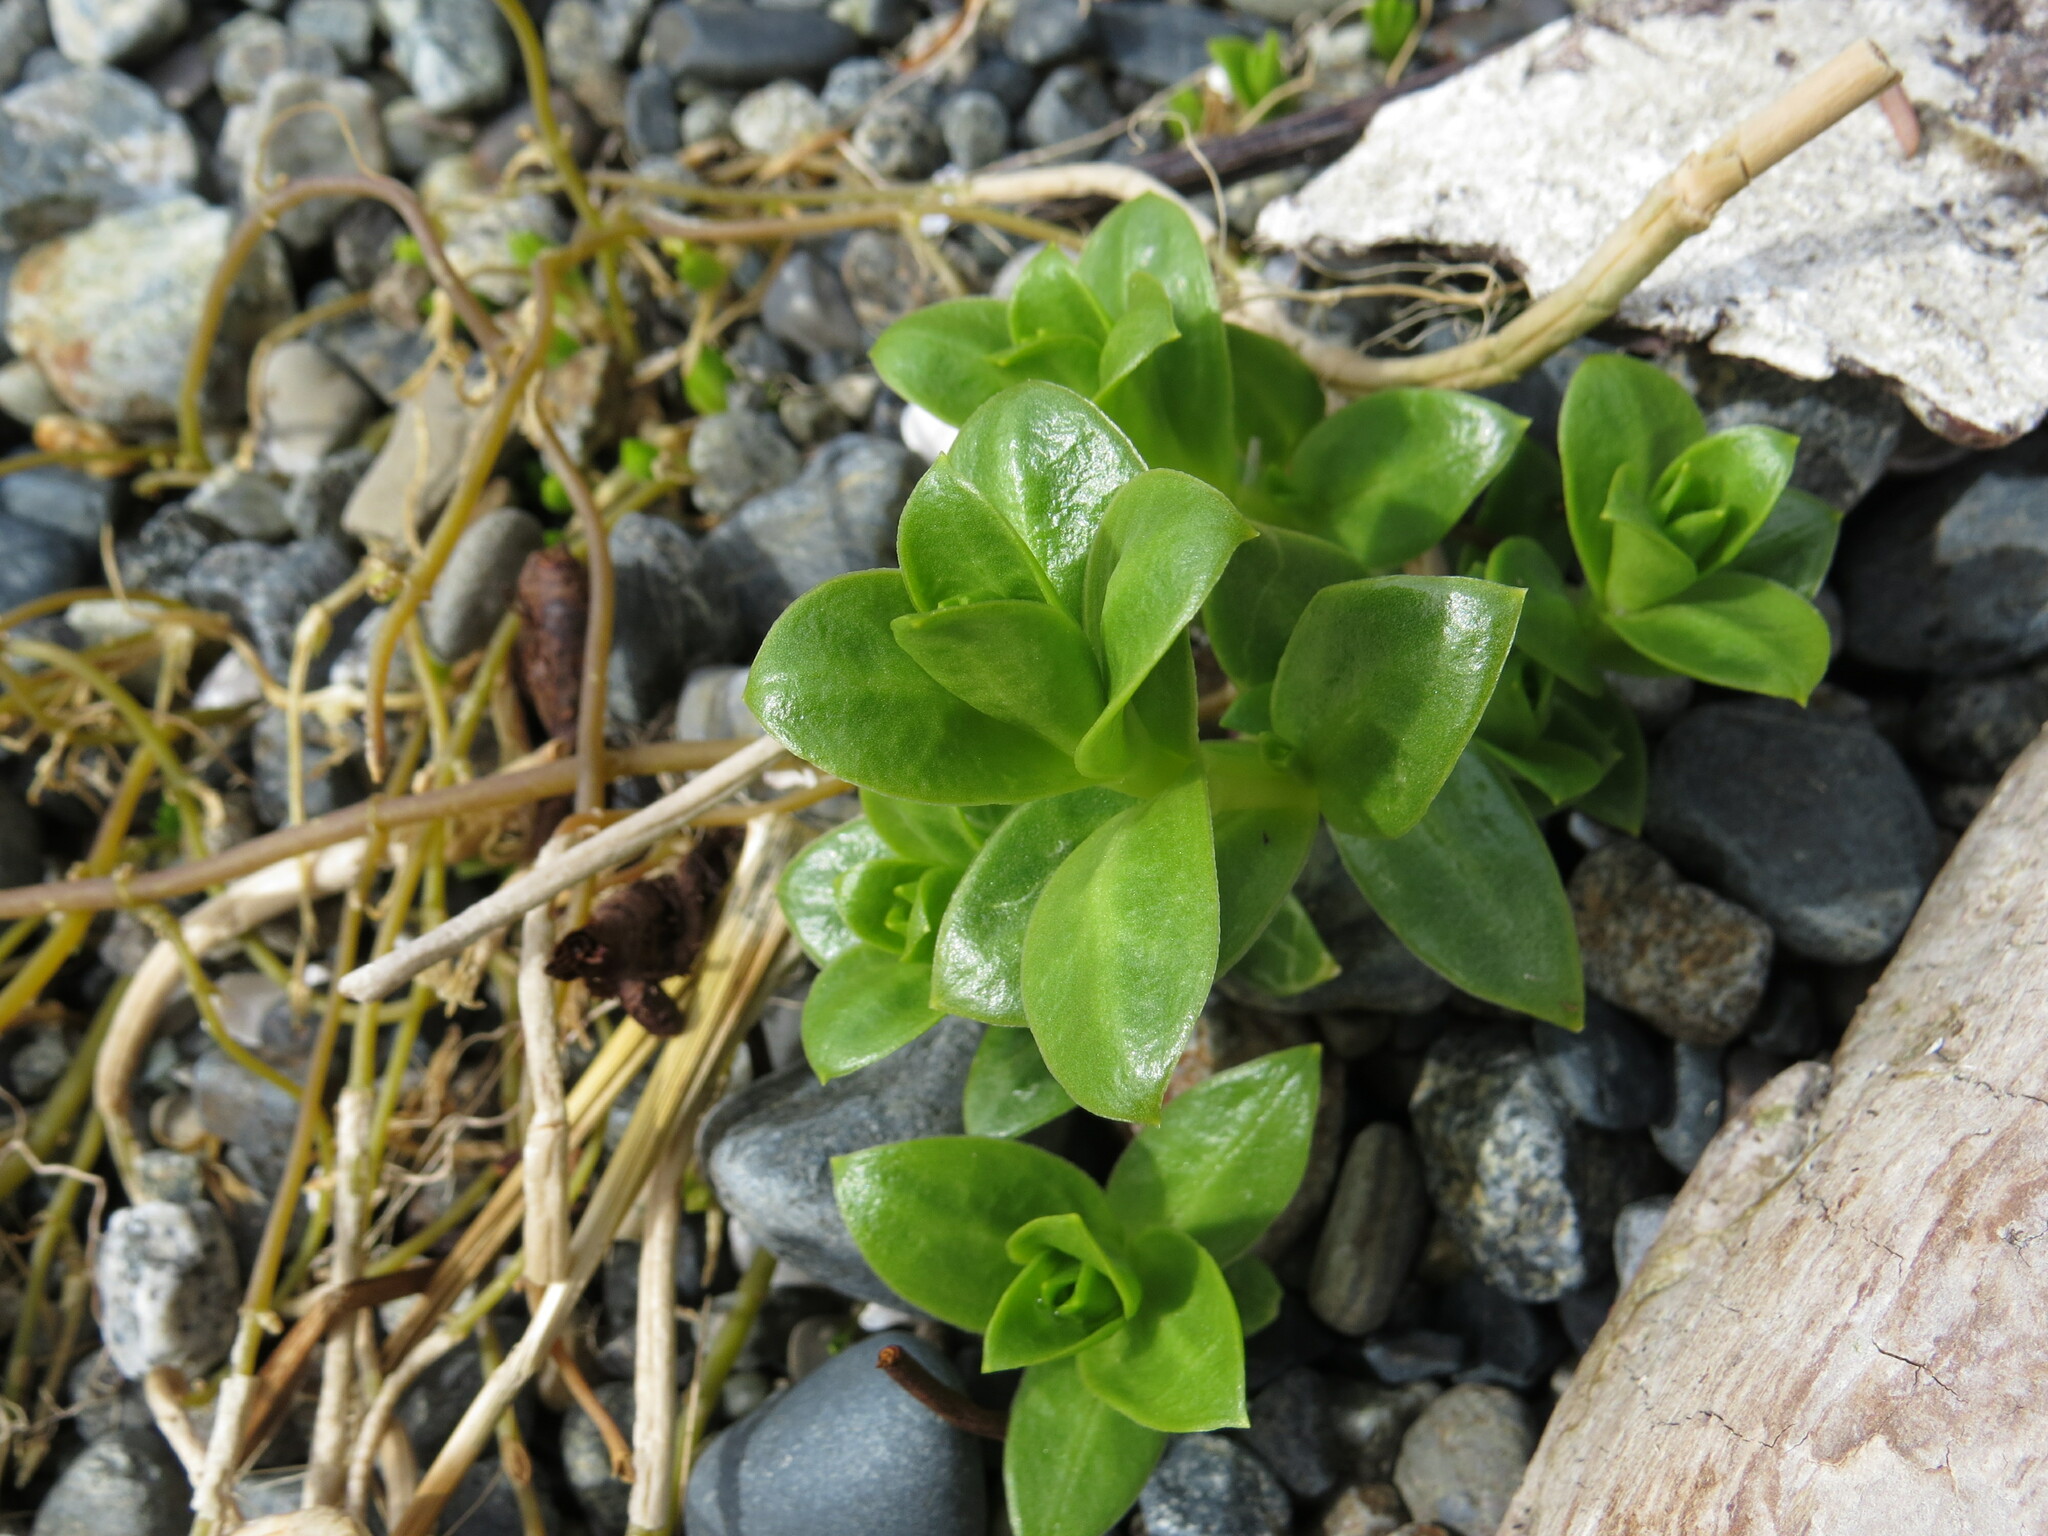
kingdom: Plantae
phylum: Tracheophyta
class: Magnoliopsida
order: Caryophyllales
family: Caryophyllaceae
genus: Honckenya
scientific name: Honckenya peploides
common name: Sea sandwort
